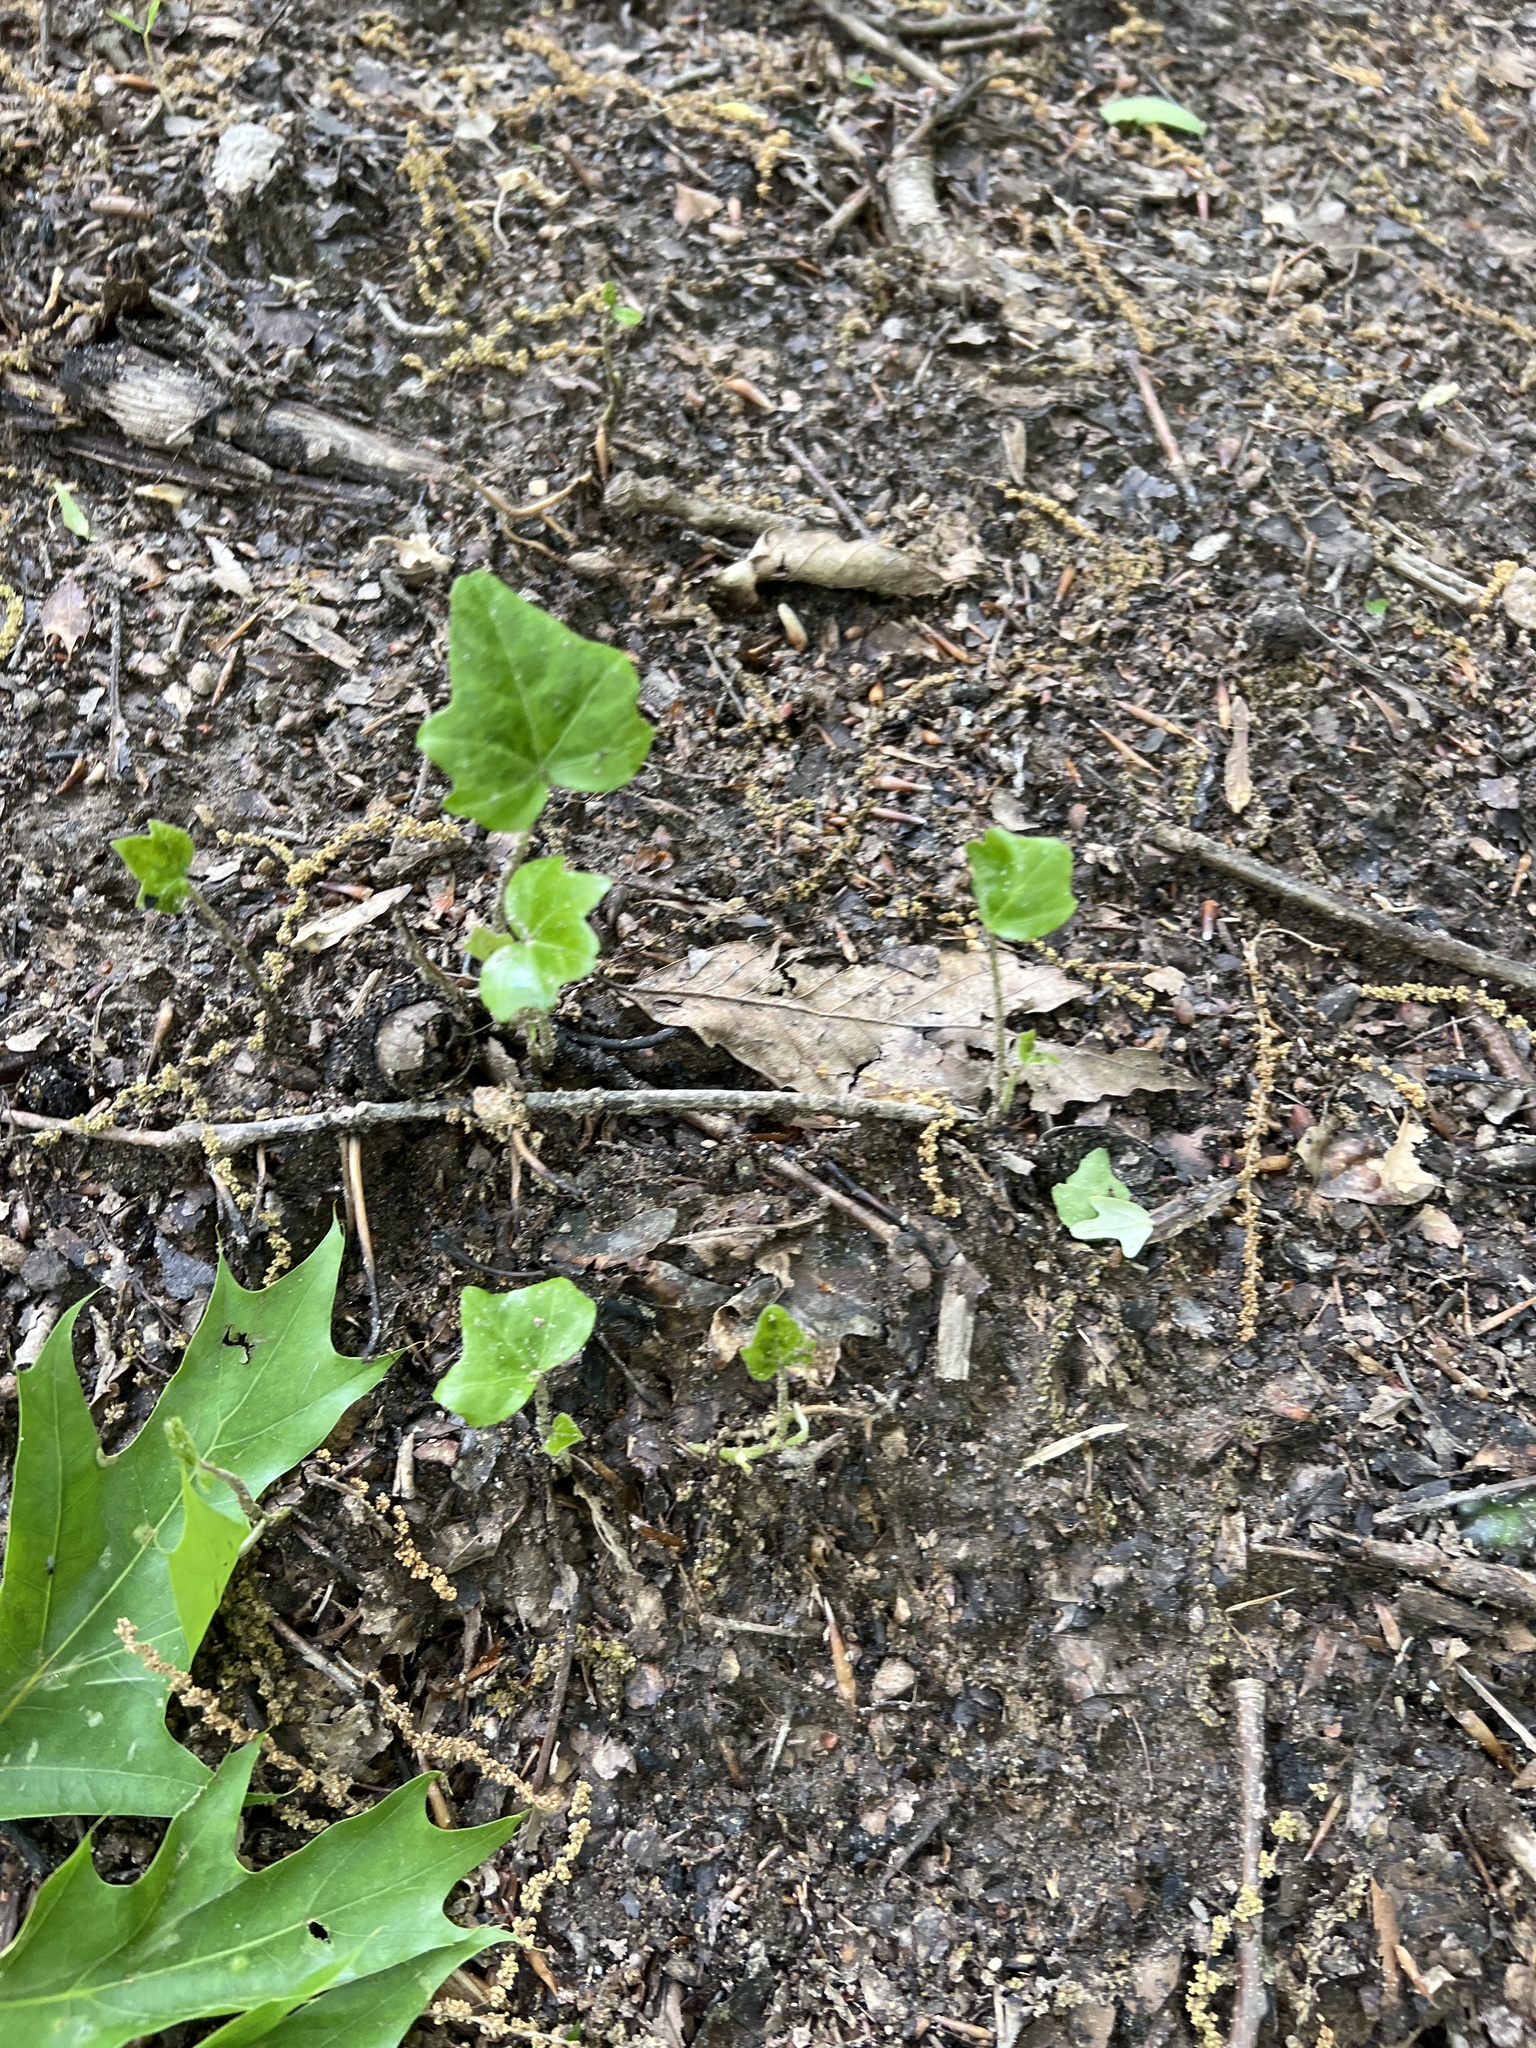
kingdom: Plantae
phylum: Tracheophyta
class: Magnoliopsida
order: Apiales
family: Araliaceae
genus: Hedera
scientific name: Hedera helix
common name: Ivy
